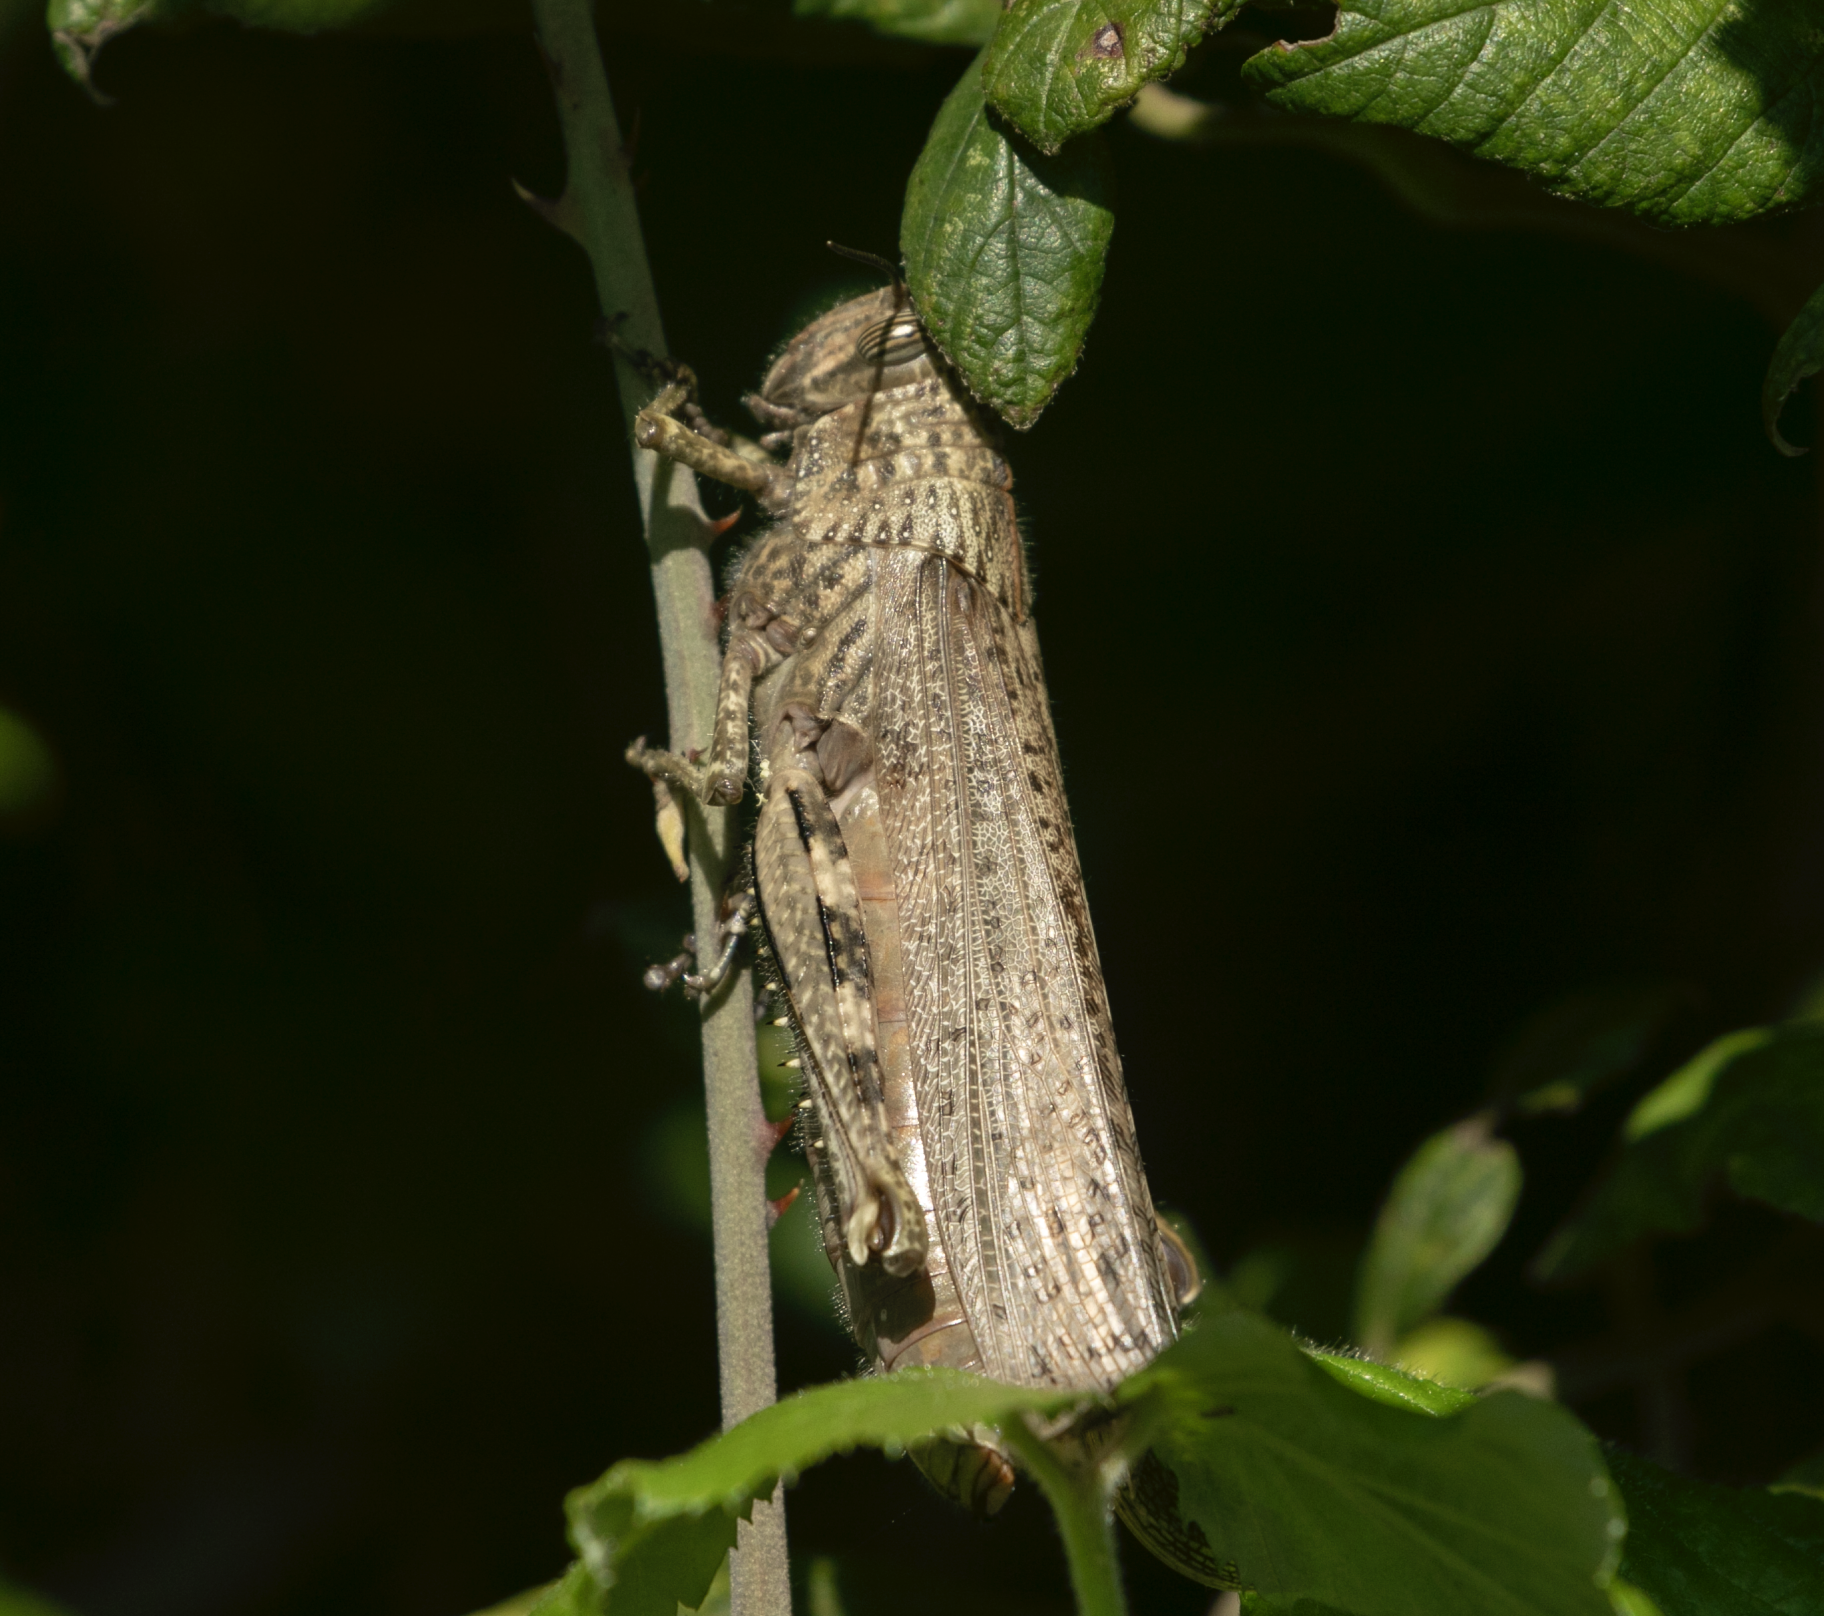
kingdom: Animalia
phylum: Arthropoda
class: Insecta
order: Orthoptera
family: Acrididae
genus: Anacridium
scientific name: Anacridium aegyptium
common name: Egyptian grasshopper
